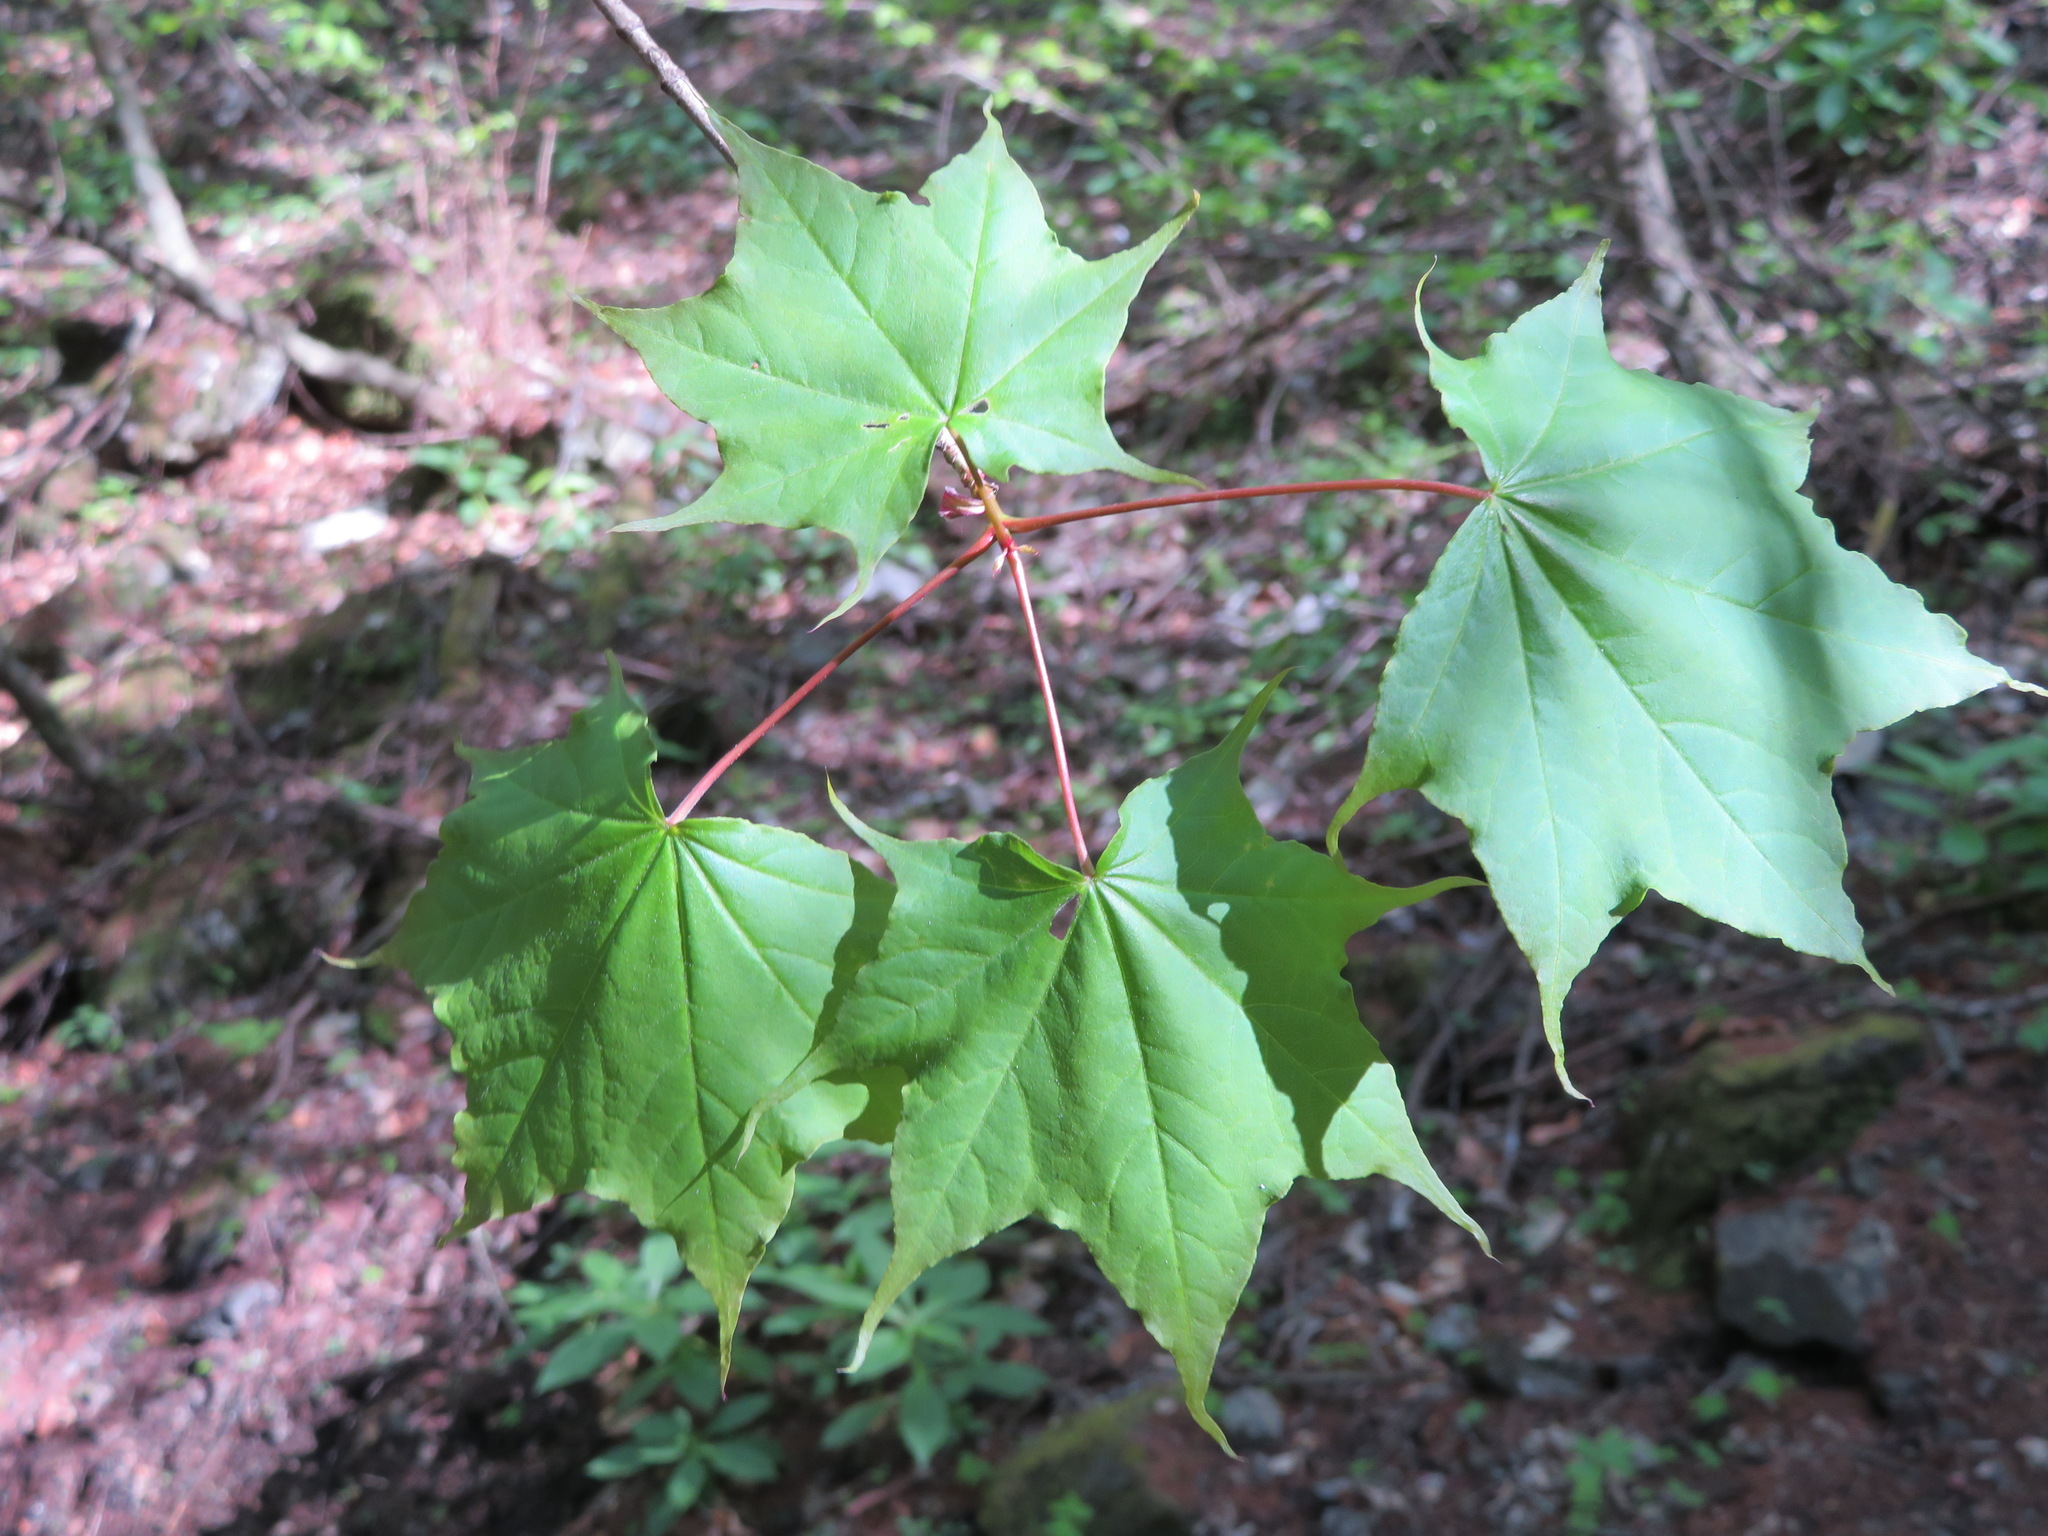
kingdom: Plantae
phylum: Tracheophyta
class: Magnoliopsida
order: Sapindales
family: Sapindaceae
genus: Acer
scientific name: Acer pictum
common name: The painted maple
